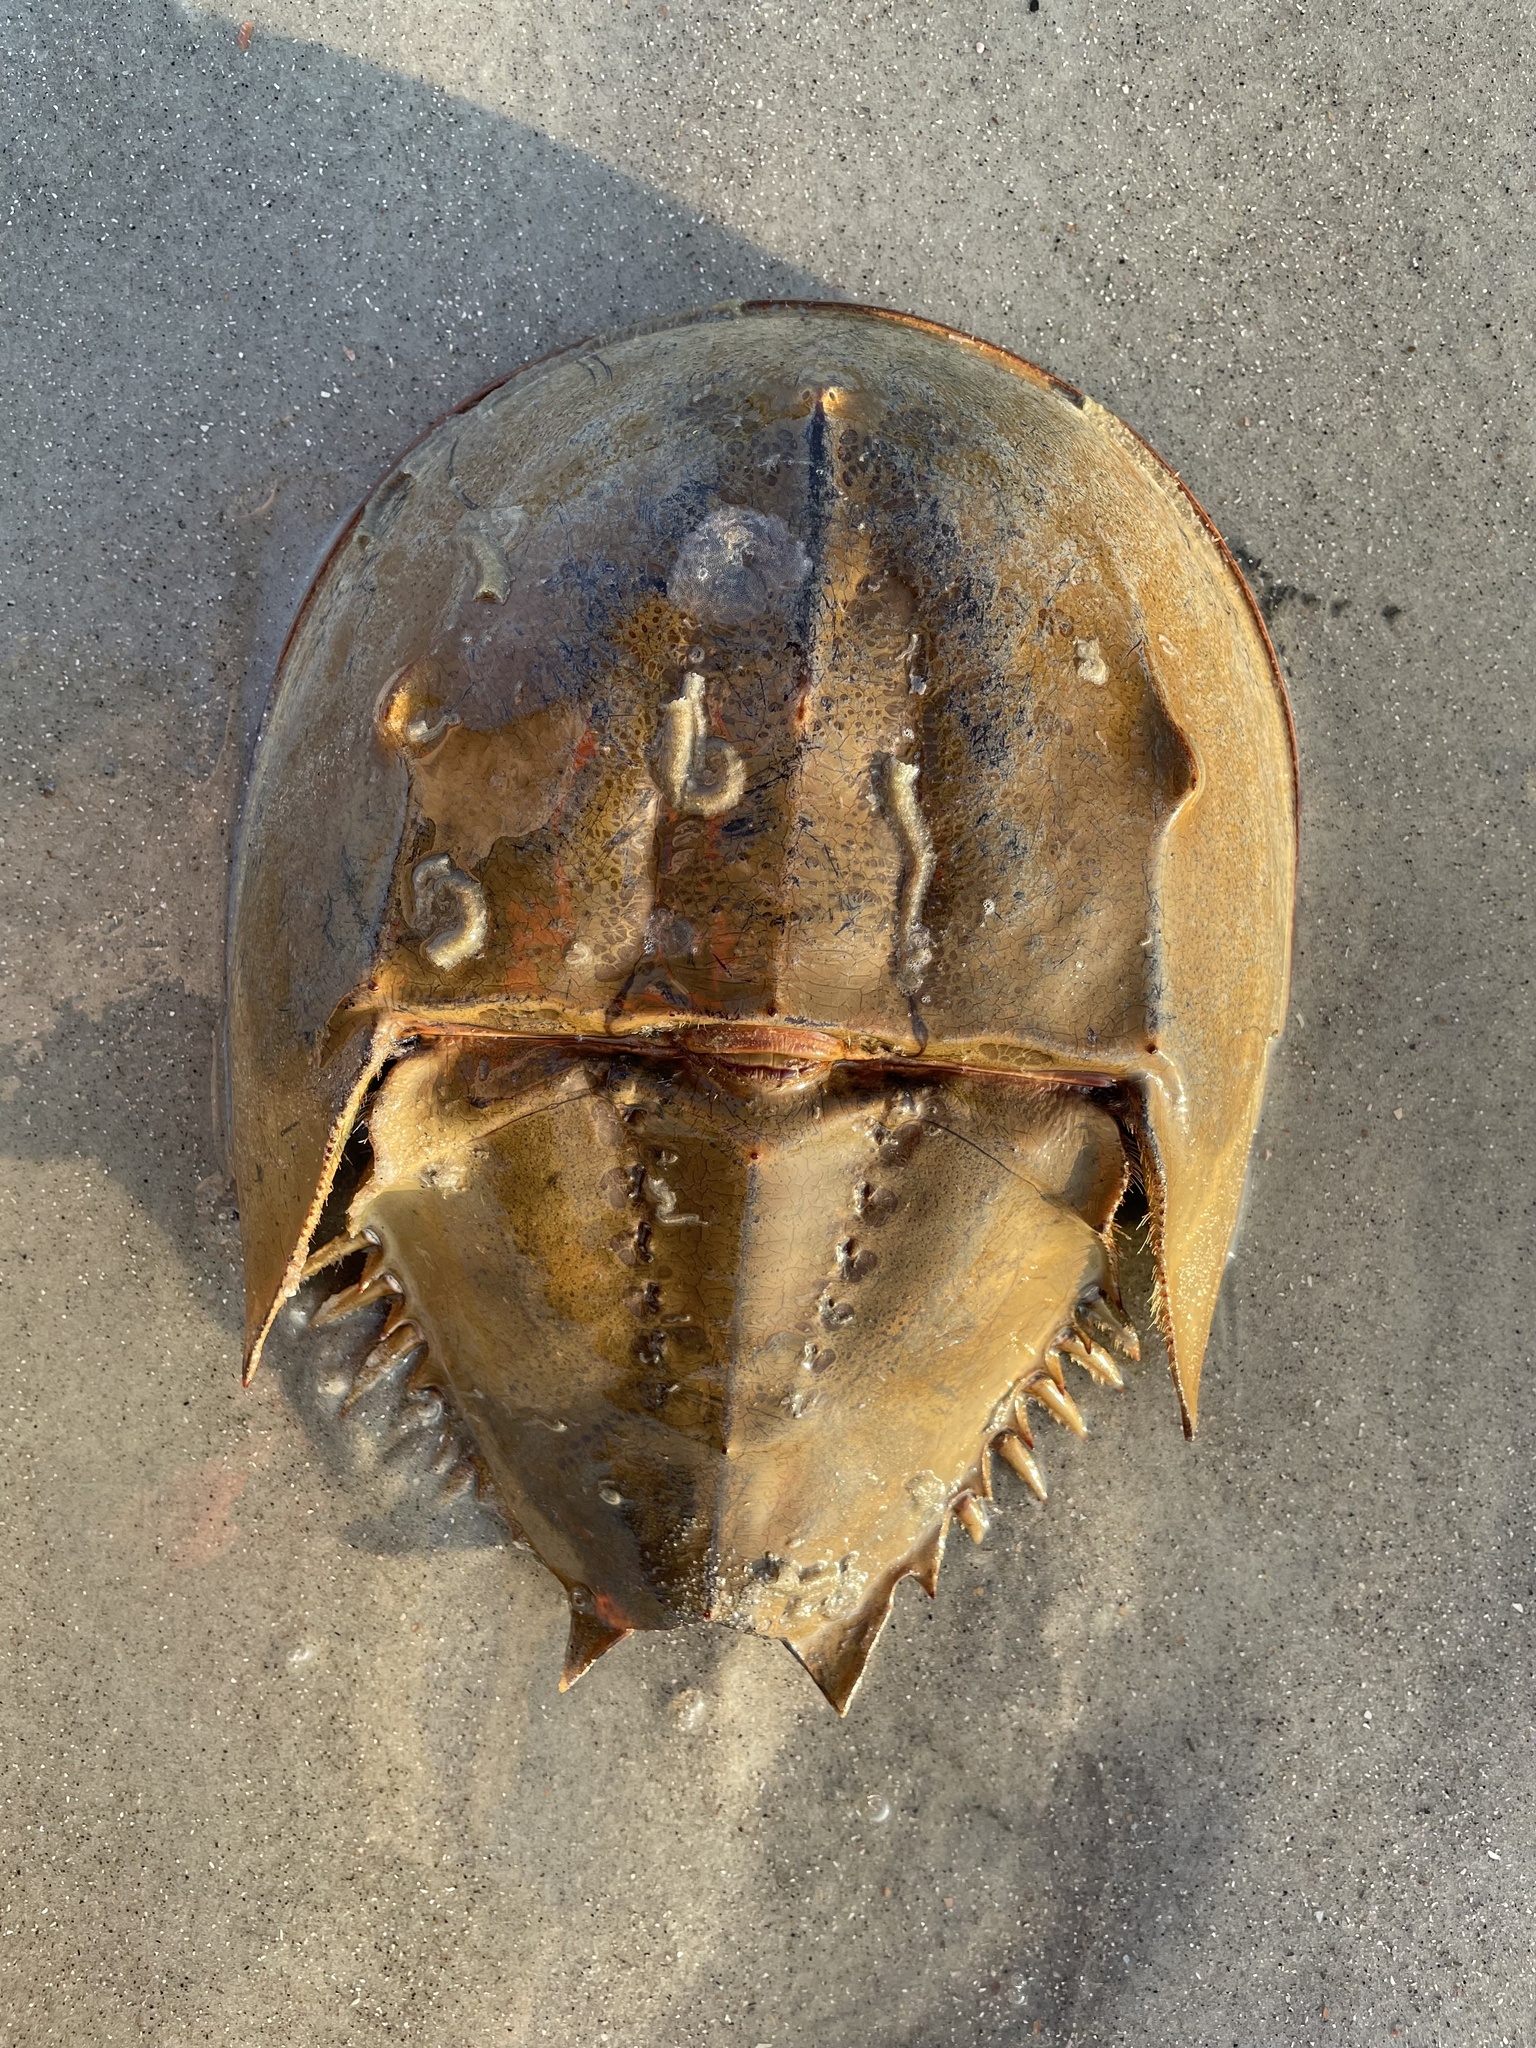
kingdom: Animalia
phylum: Arthropoda
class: Merostomata
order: Xiphosurida
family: Limulidae
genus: Limulus
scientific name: Limulus polyphemus
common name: Horseshoe crab
